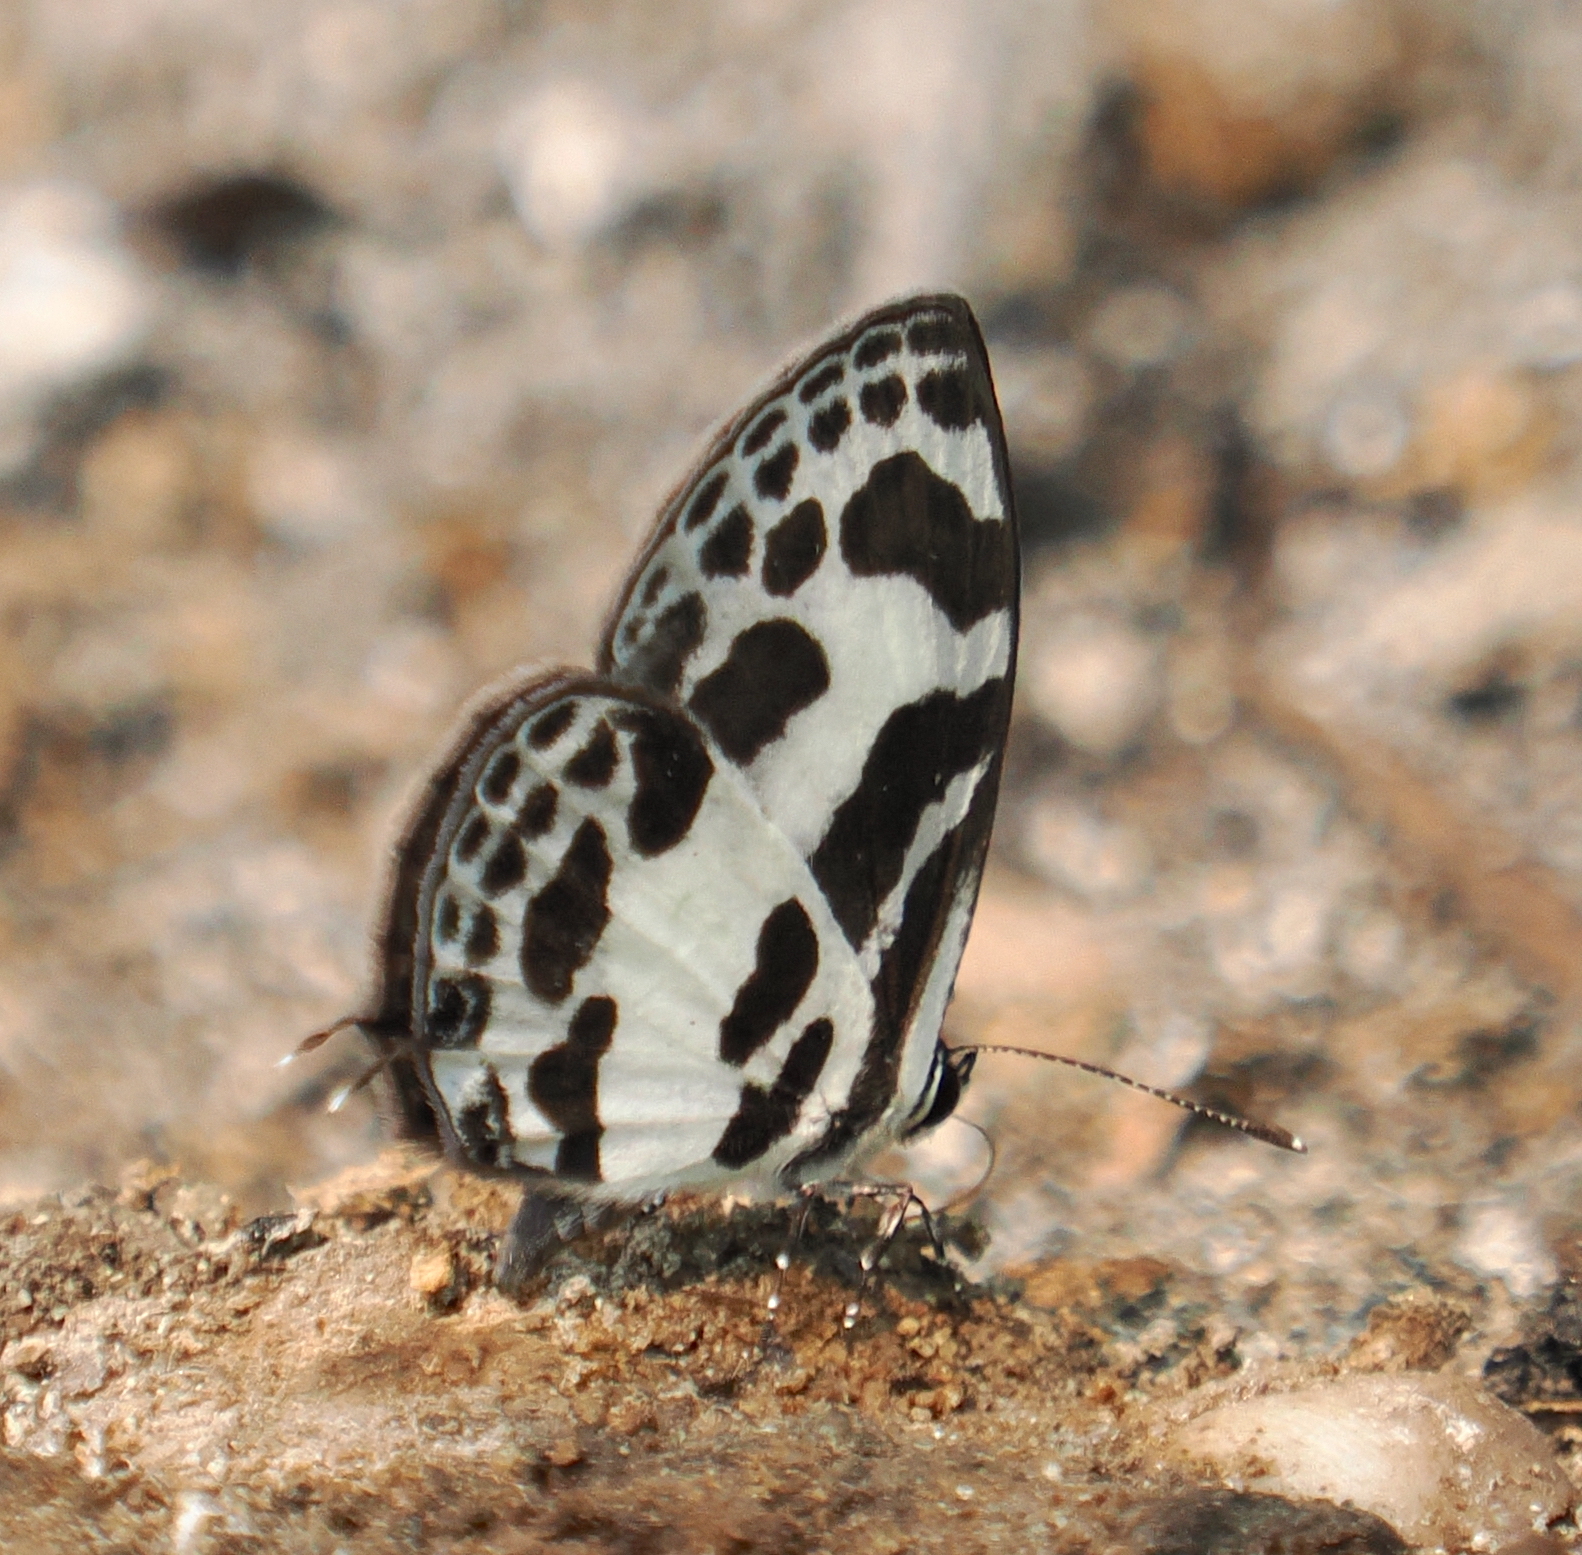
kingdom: Animalia
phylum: Arthropoda
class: Insecta
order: Lepidoptera
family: Lycaenidae
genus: Discolampa
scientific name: Discolampa ethion
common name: Banded blue pierrot
